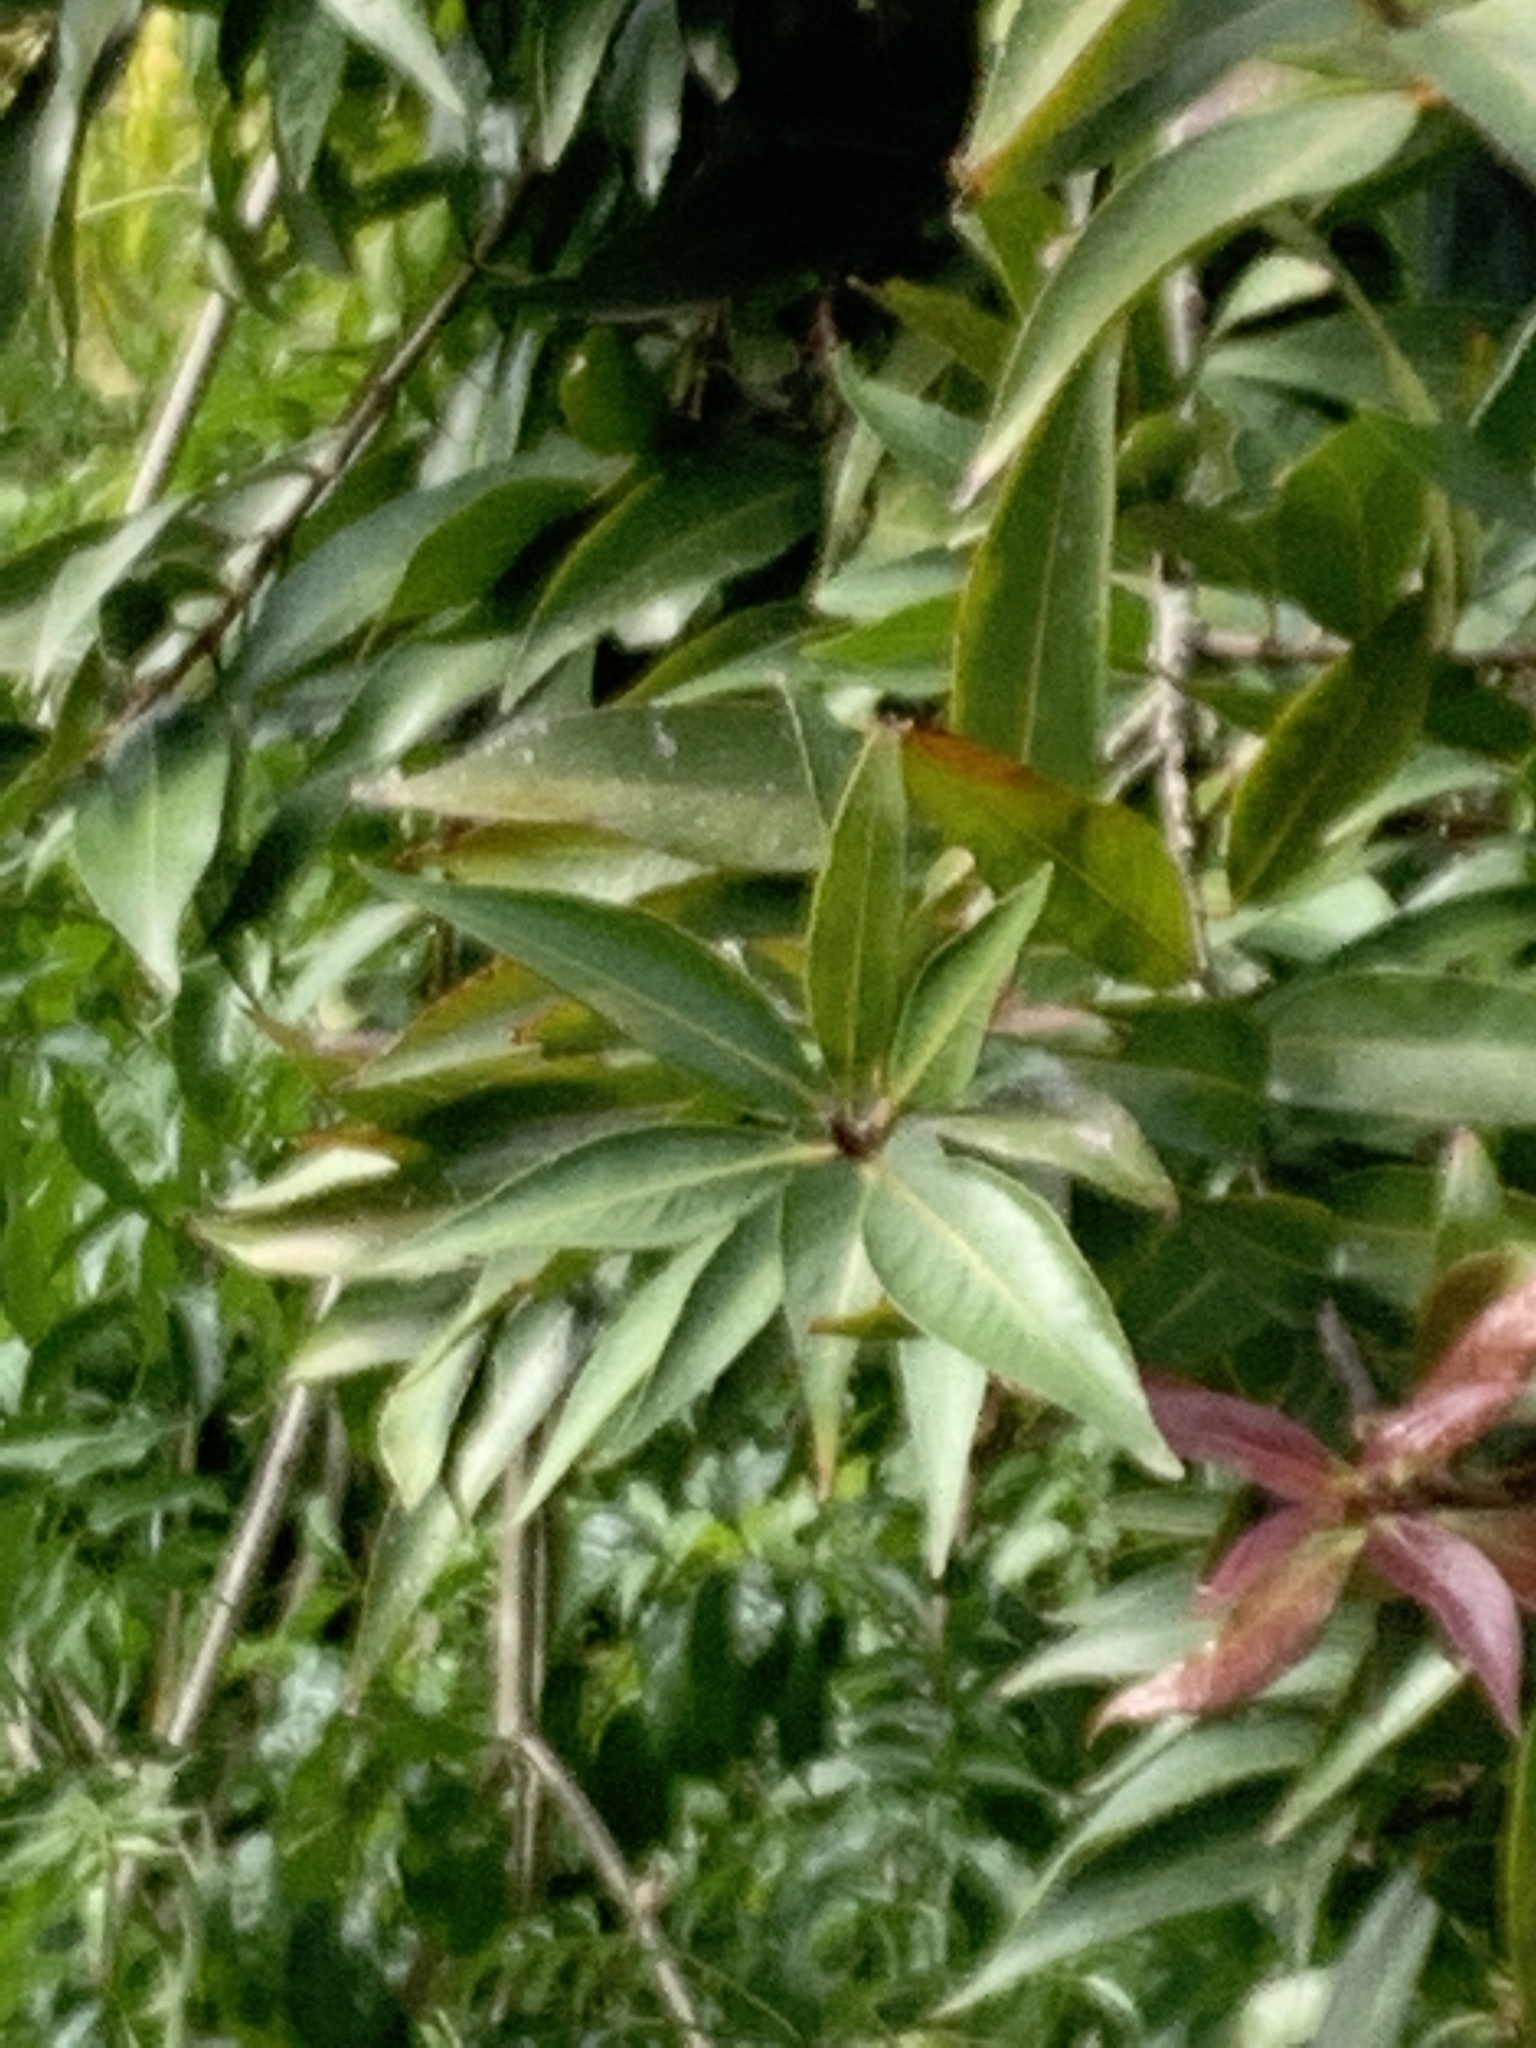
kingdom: Plantae
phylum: Tracheophyta
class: Magnoliopsida
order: Myrtales
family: Myrtaceae
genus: Syzygium
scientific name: Syzygium jambos
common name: Malabar plum
